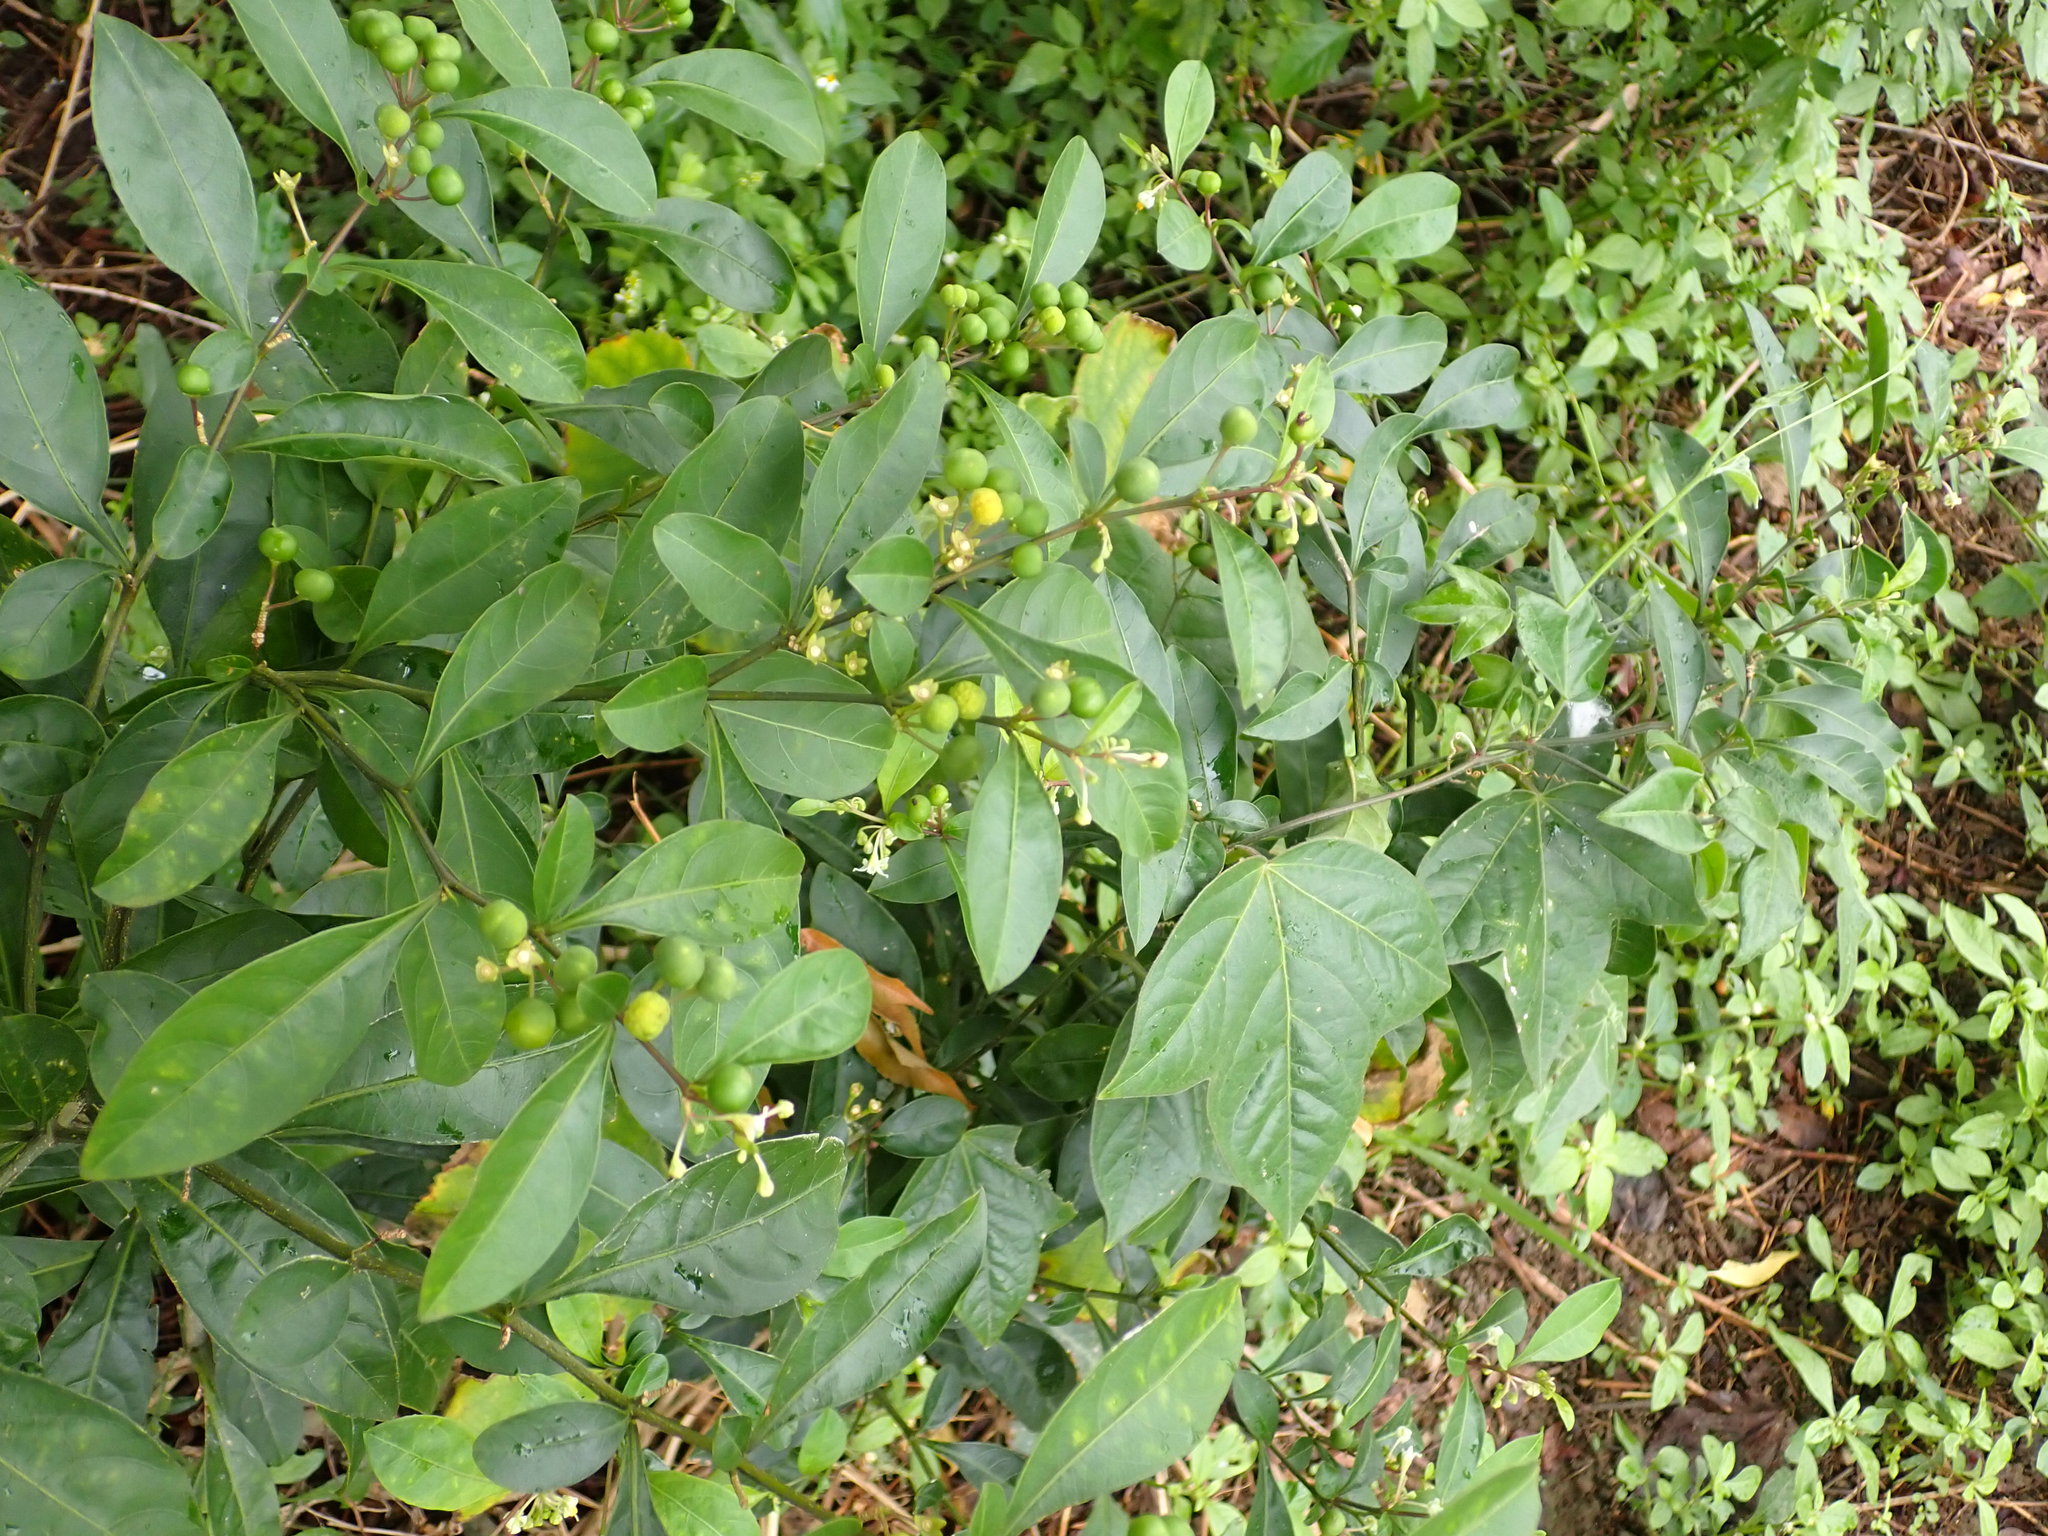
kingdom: Plantae
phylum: Tracheophyta
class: Magnoliopsida
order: Solanales
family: Solanaceae
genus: Solanum
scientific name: Solanum diphyllum
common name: Twoleaf nightshade
